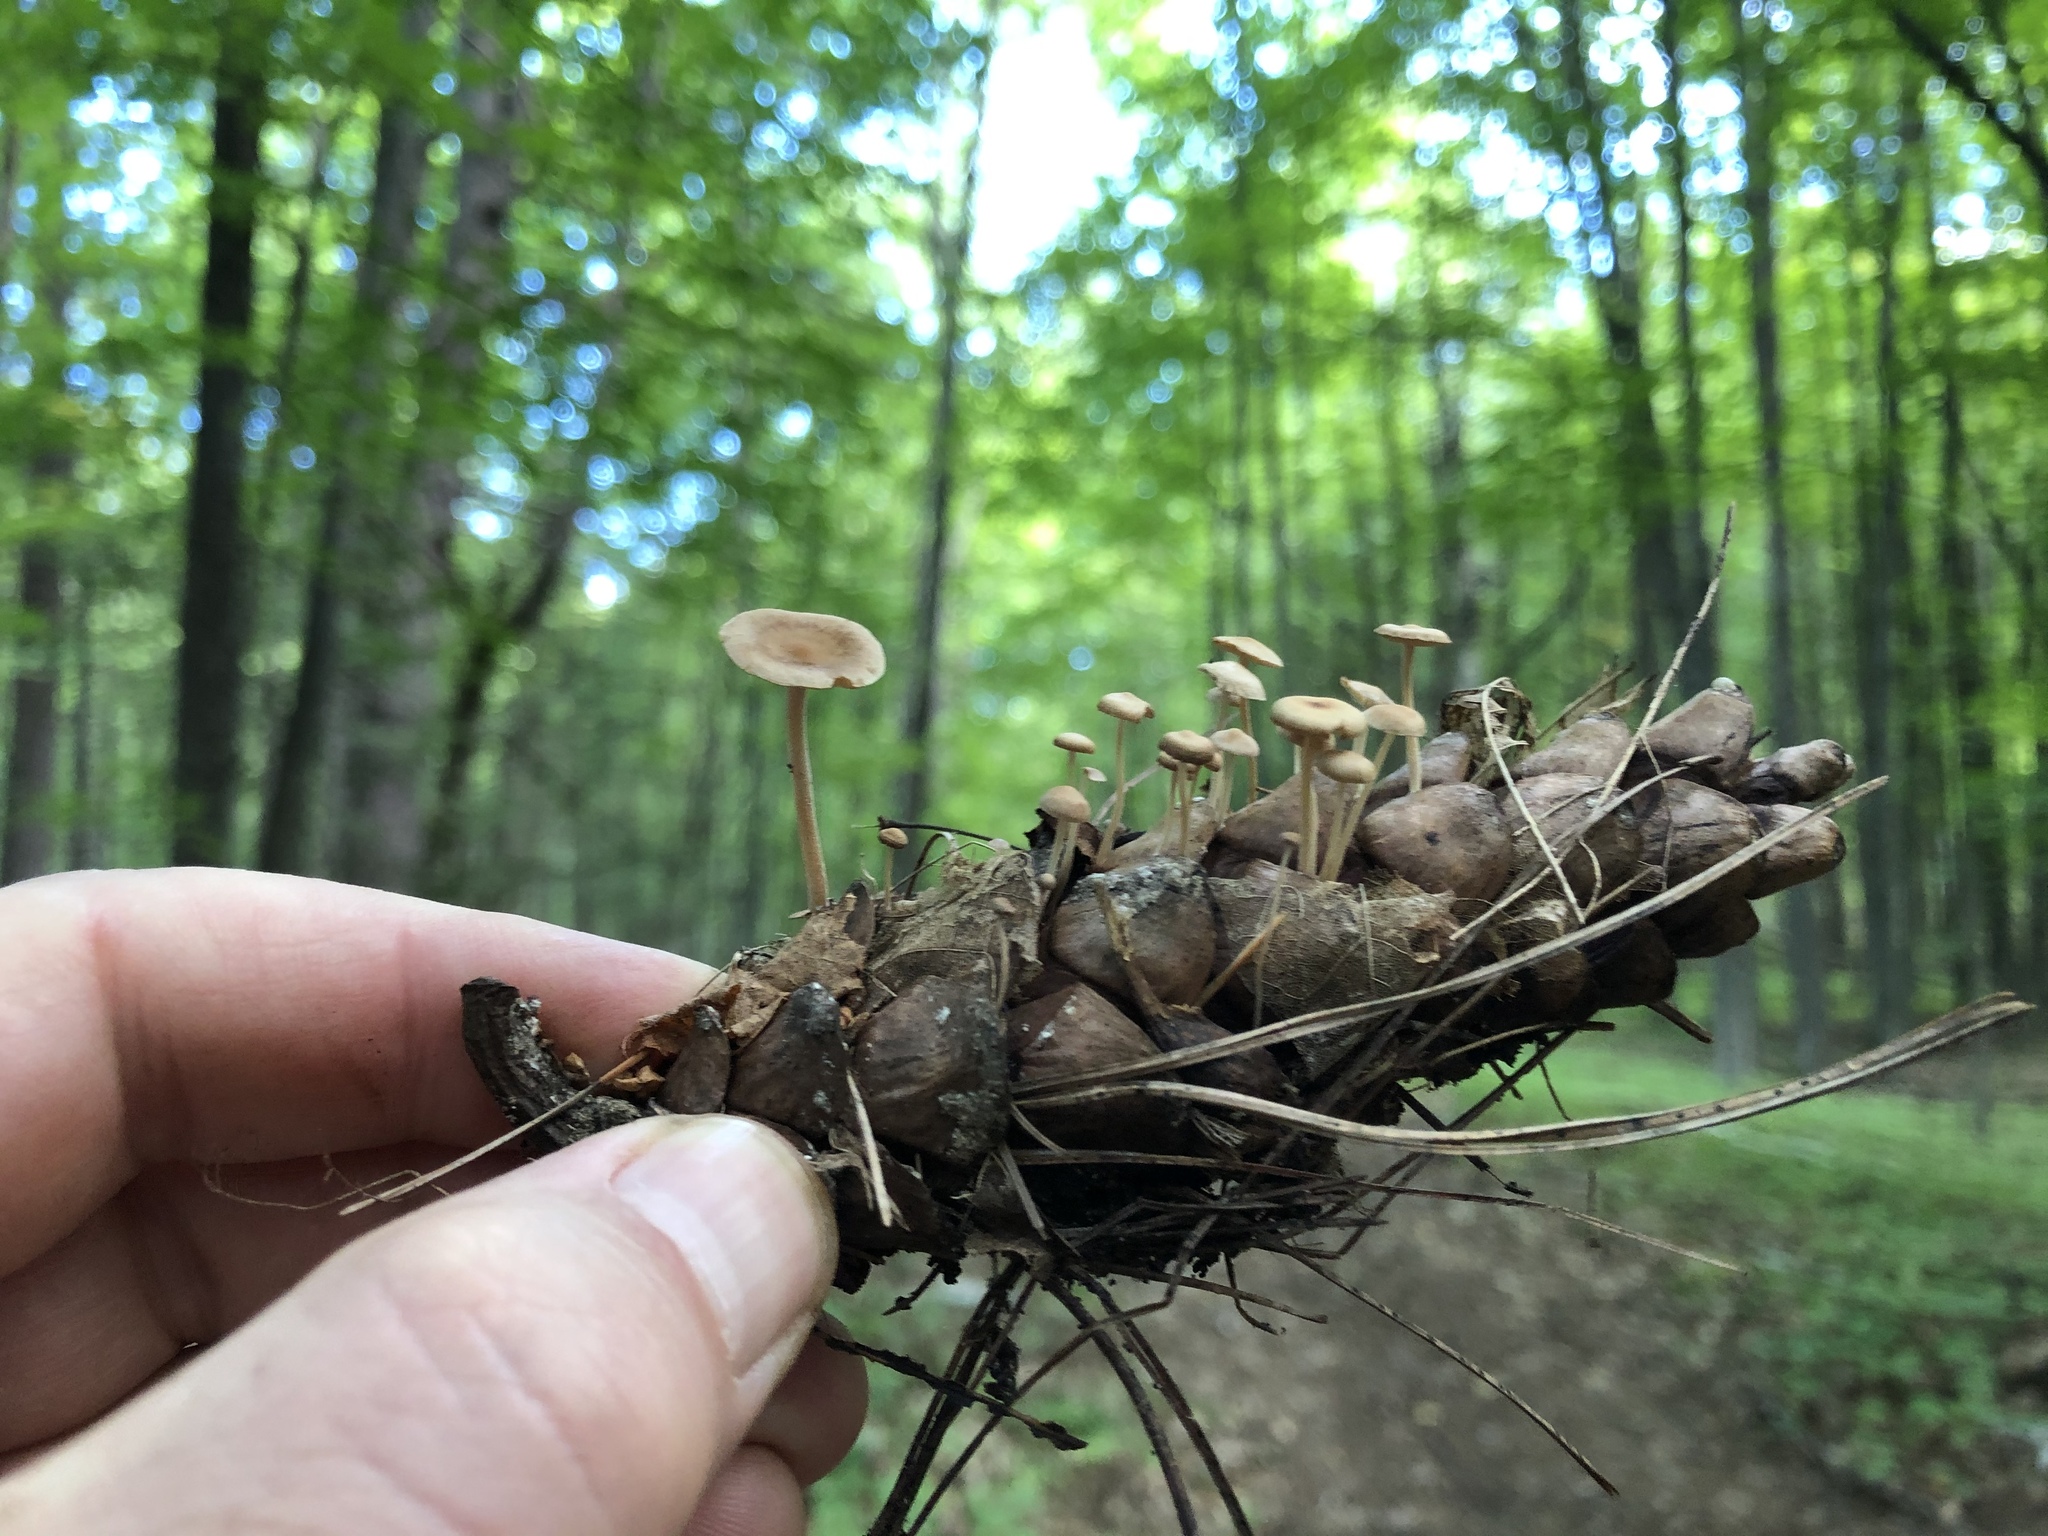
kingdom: Fungi
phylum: Basidiomycota
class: Agaricomycetes
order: Agaricales
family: Marasmiaceae
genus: Baeospora
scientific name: Baeospora myosura
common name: Conifercone cap
